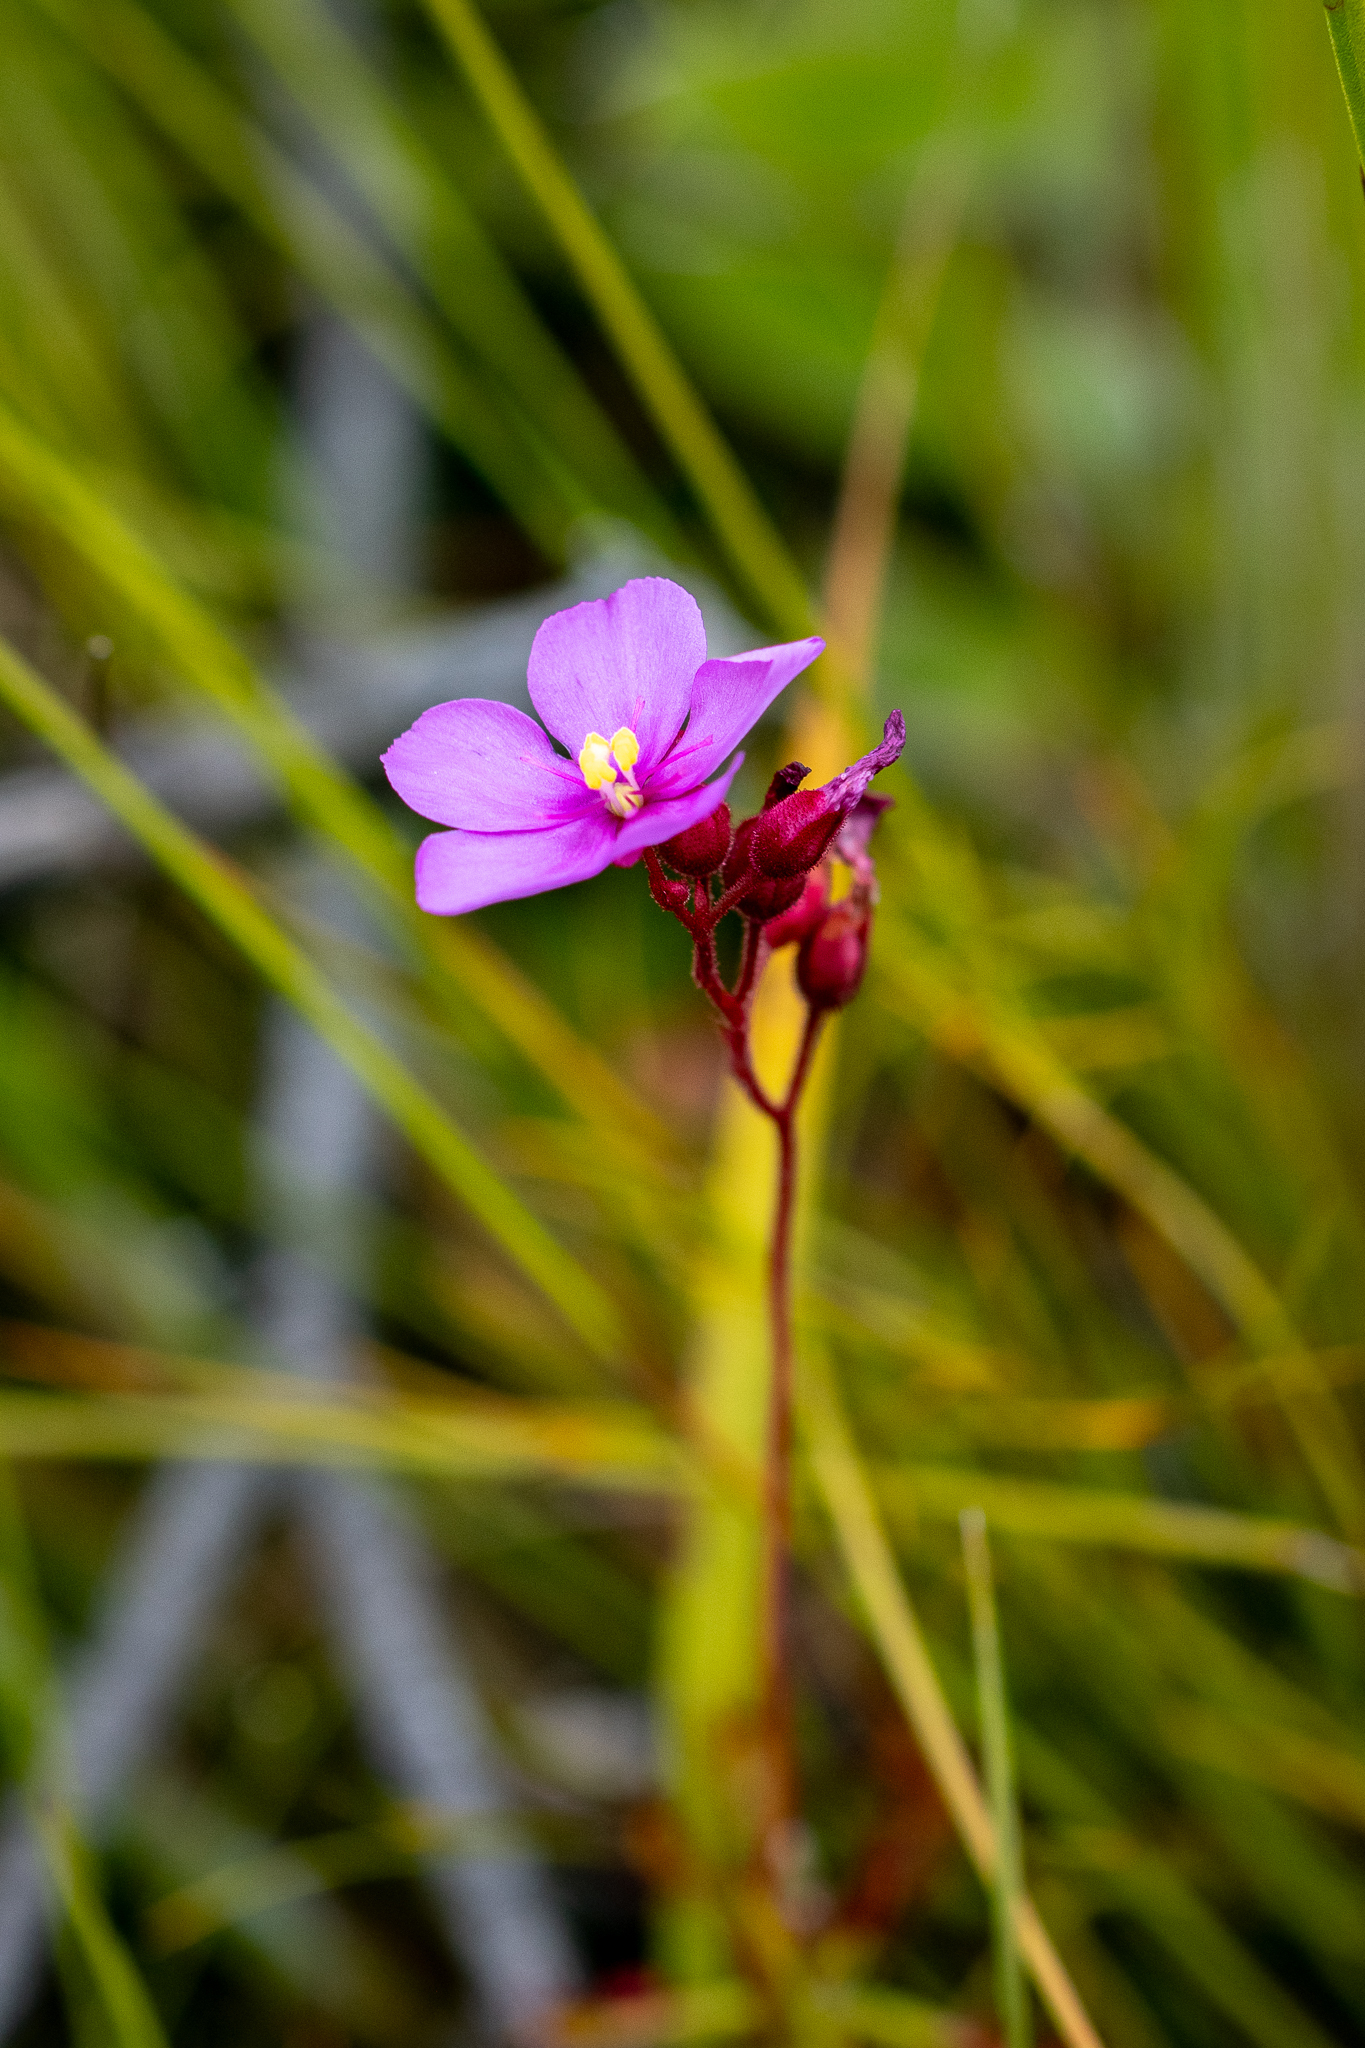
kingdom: Plantae
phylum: Tracheophyta
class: Magnoliopsida
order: Caryophyllales
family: Droseraceae
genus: Drosera
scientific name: Drosera glabripes
